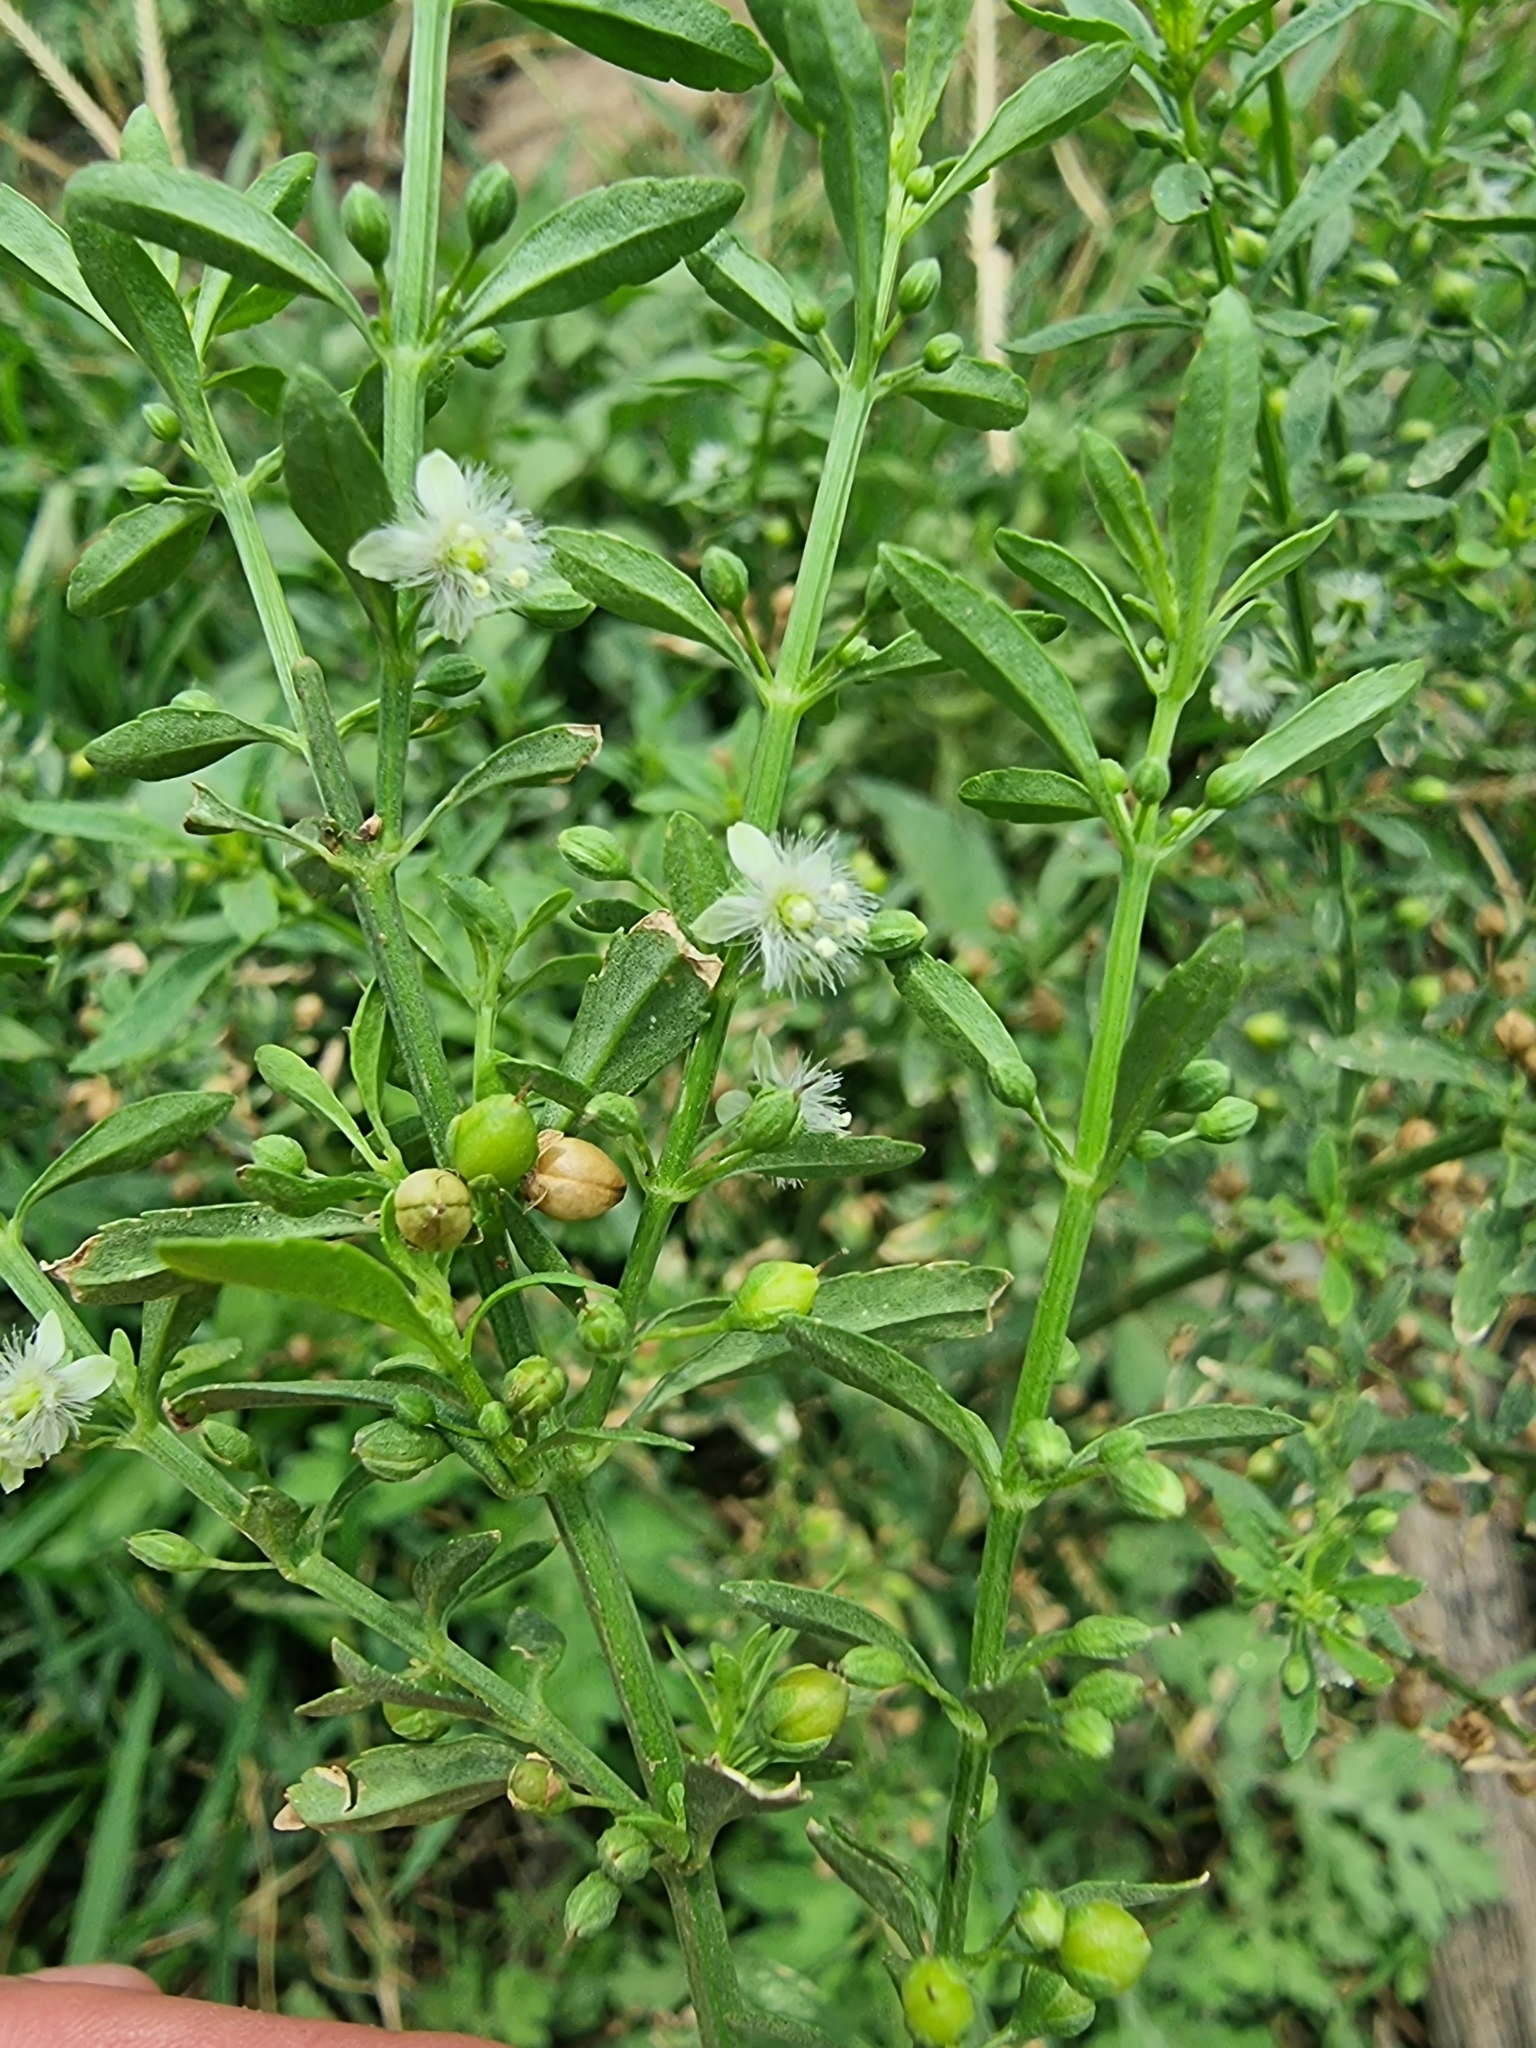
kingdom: Plantae
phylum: Tracheophyta
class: Magnoliopsida
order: Lamiales
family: Plantaginaceae
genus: Scoparia
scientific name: Scoparia dulcis
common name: Scoparia-weed
